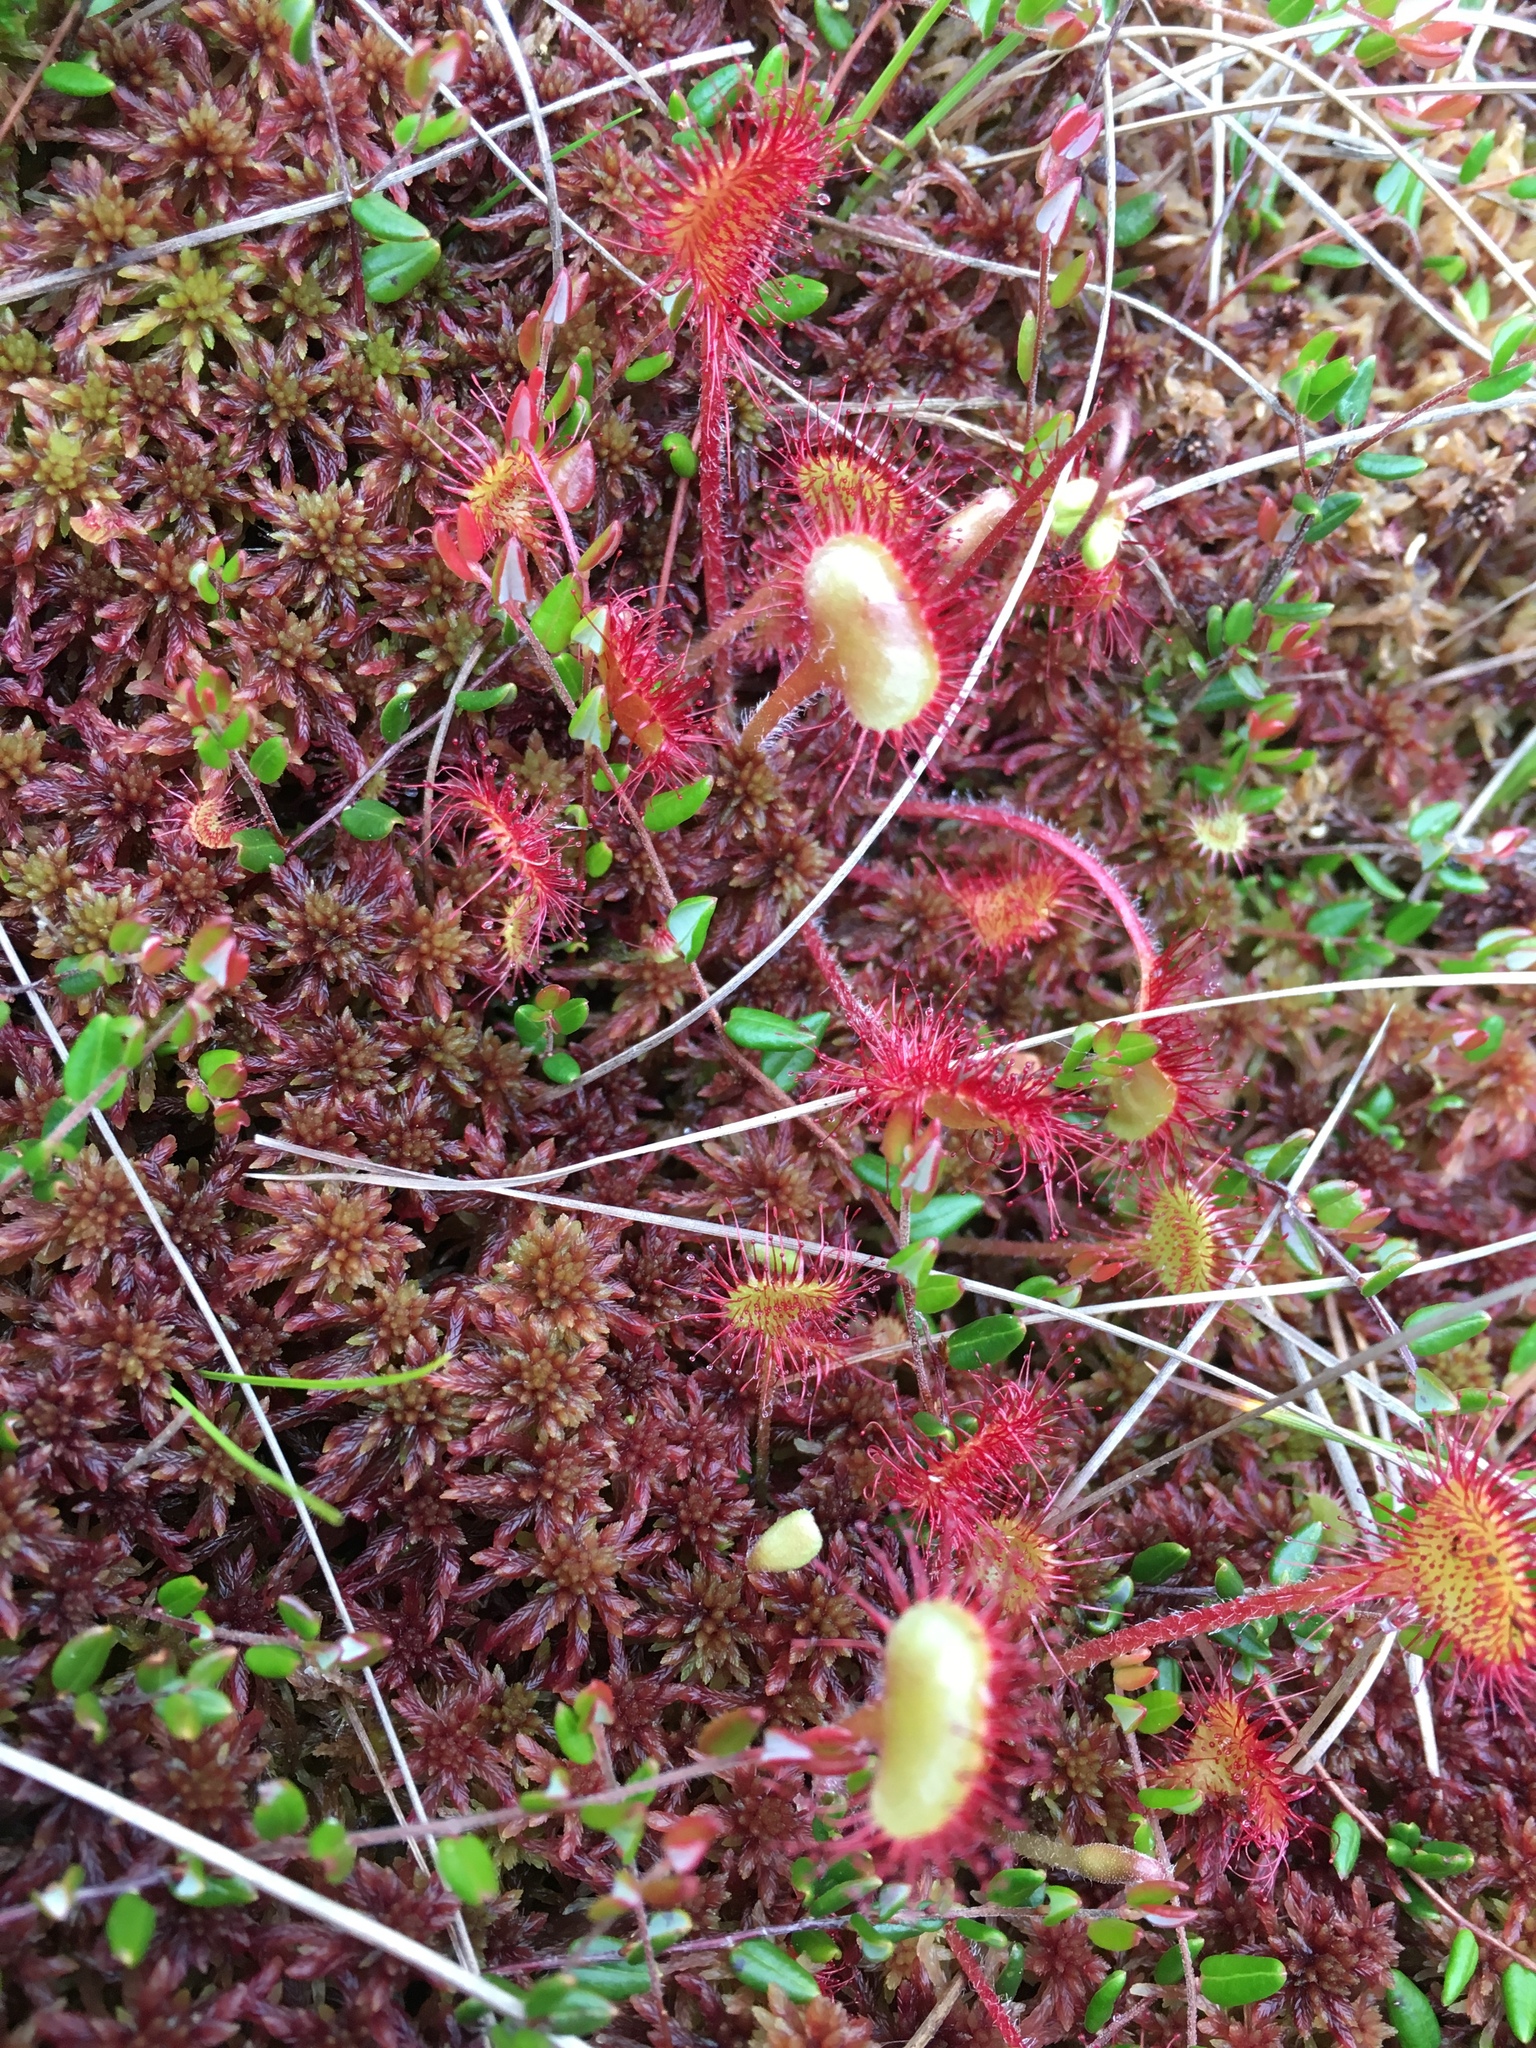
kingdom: Plantae
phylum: Tracheophyta
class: Magnoliopsida
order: Caryophyllales
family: Droseraceae
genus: Drosera
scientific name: Drosera rotundifolia
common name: Round-leaved sundew
